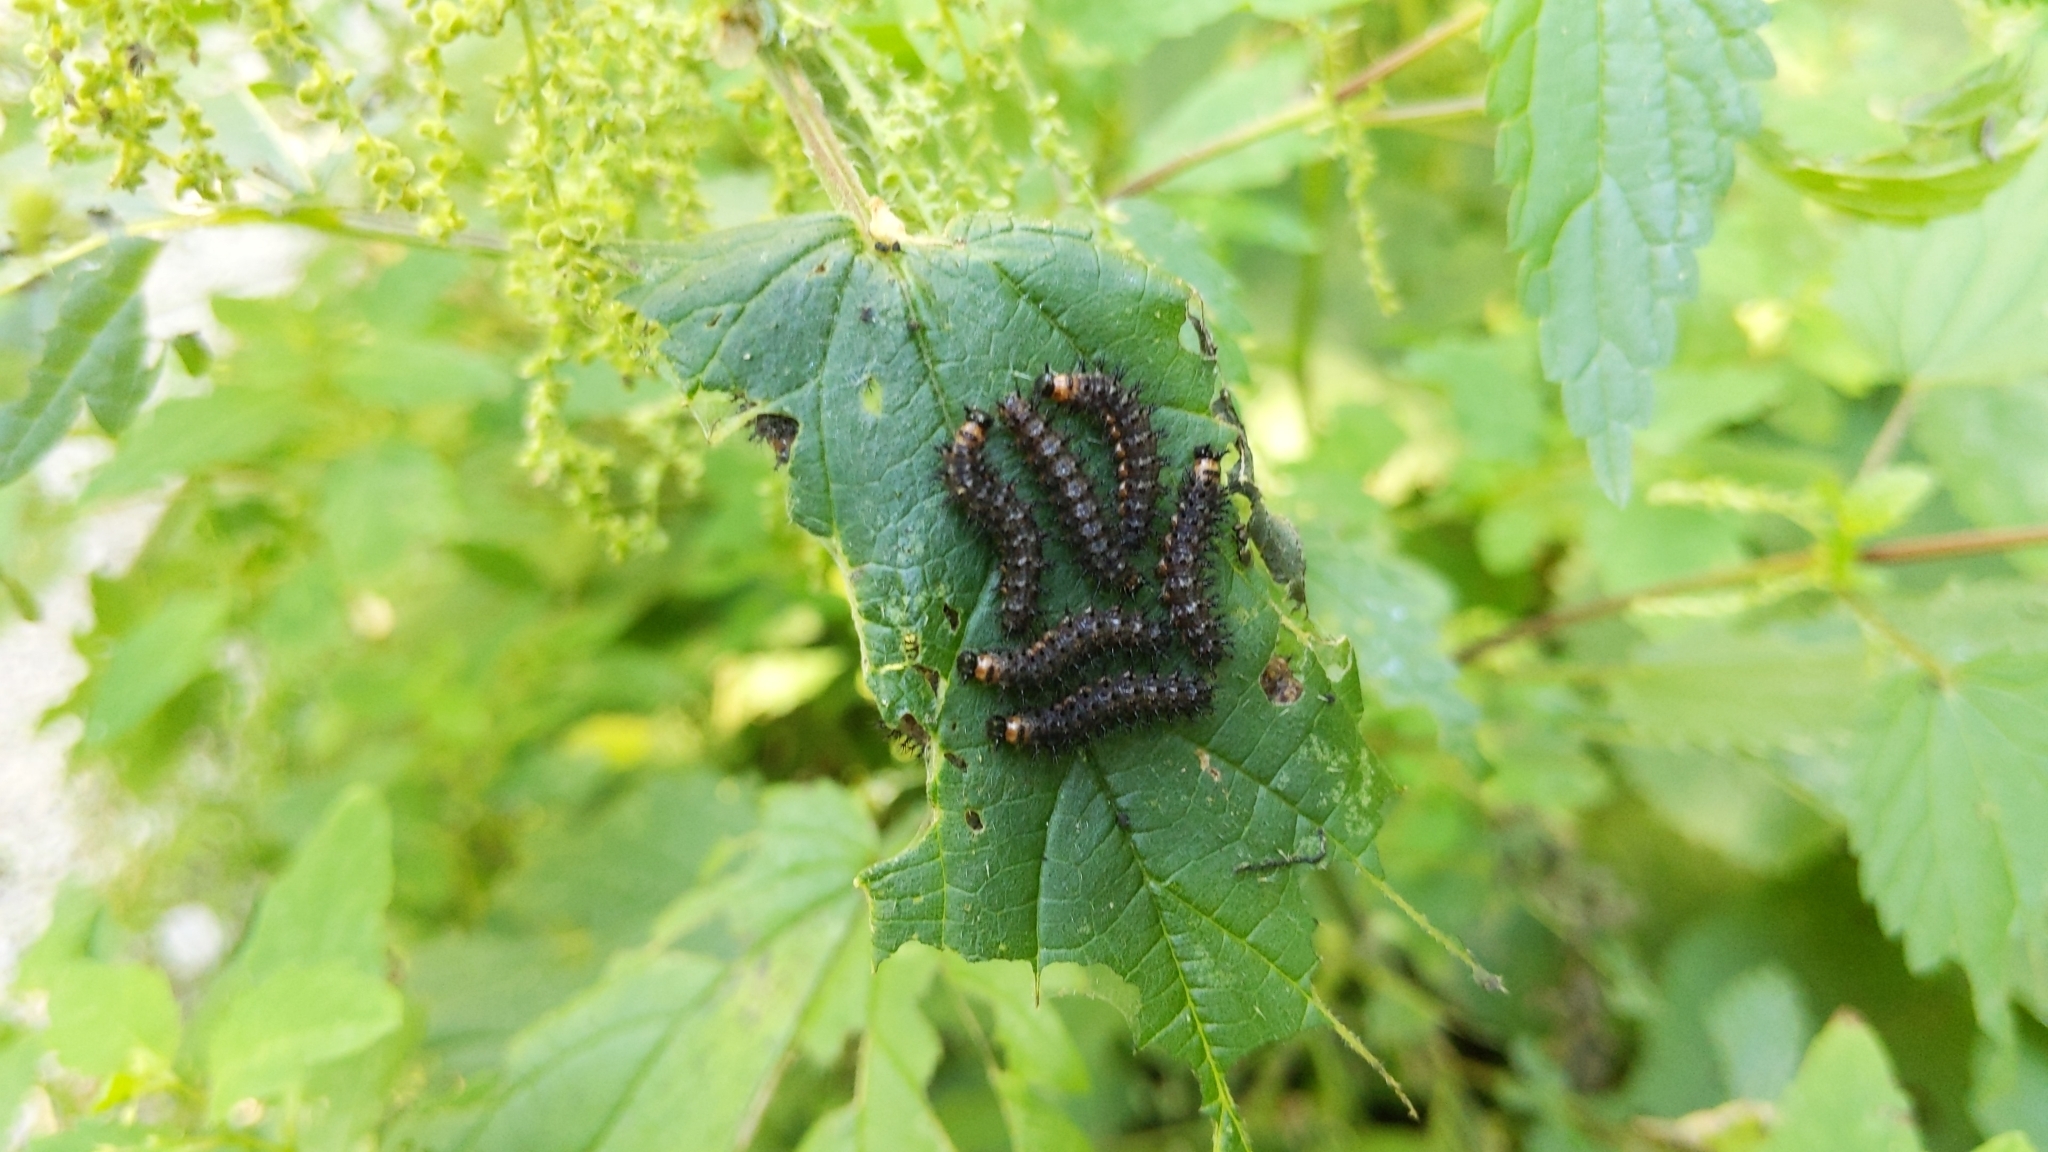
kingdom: Animalia
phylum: Arthropoda
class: Insecta
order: Lepidoptera
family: Nymphalidae
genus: Araschnia
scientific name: Araschnia levana
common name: Map butterfly
